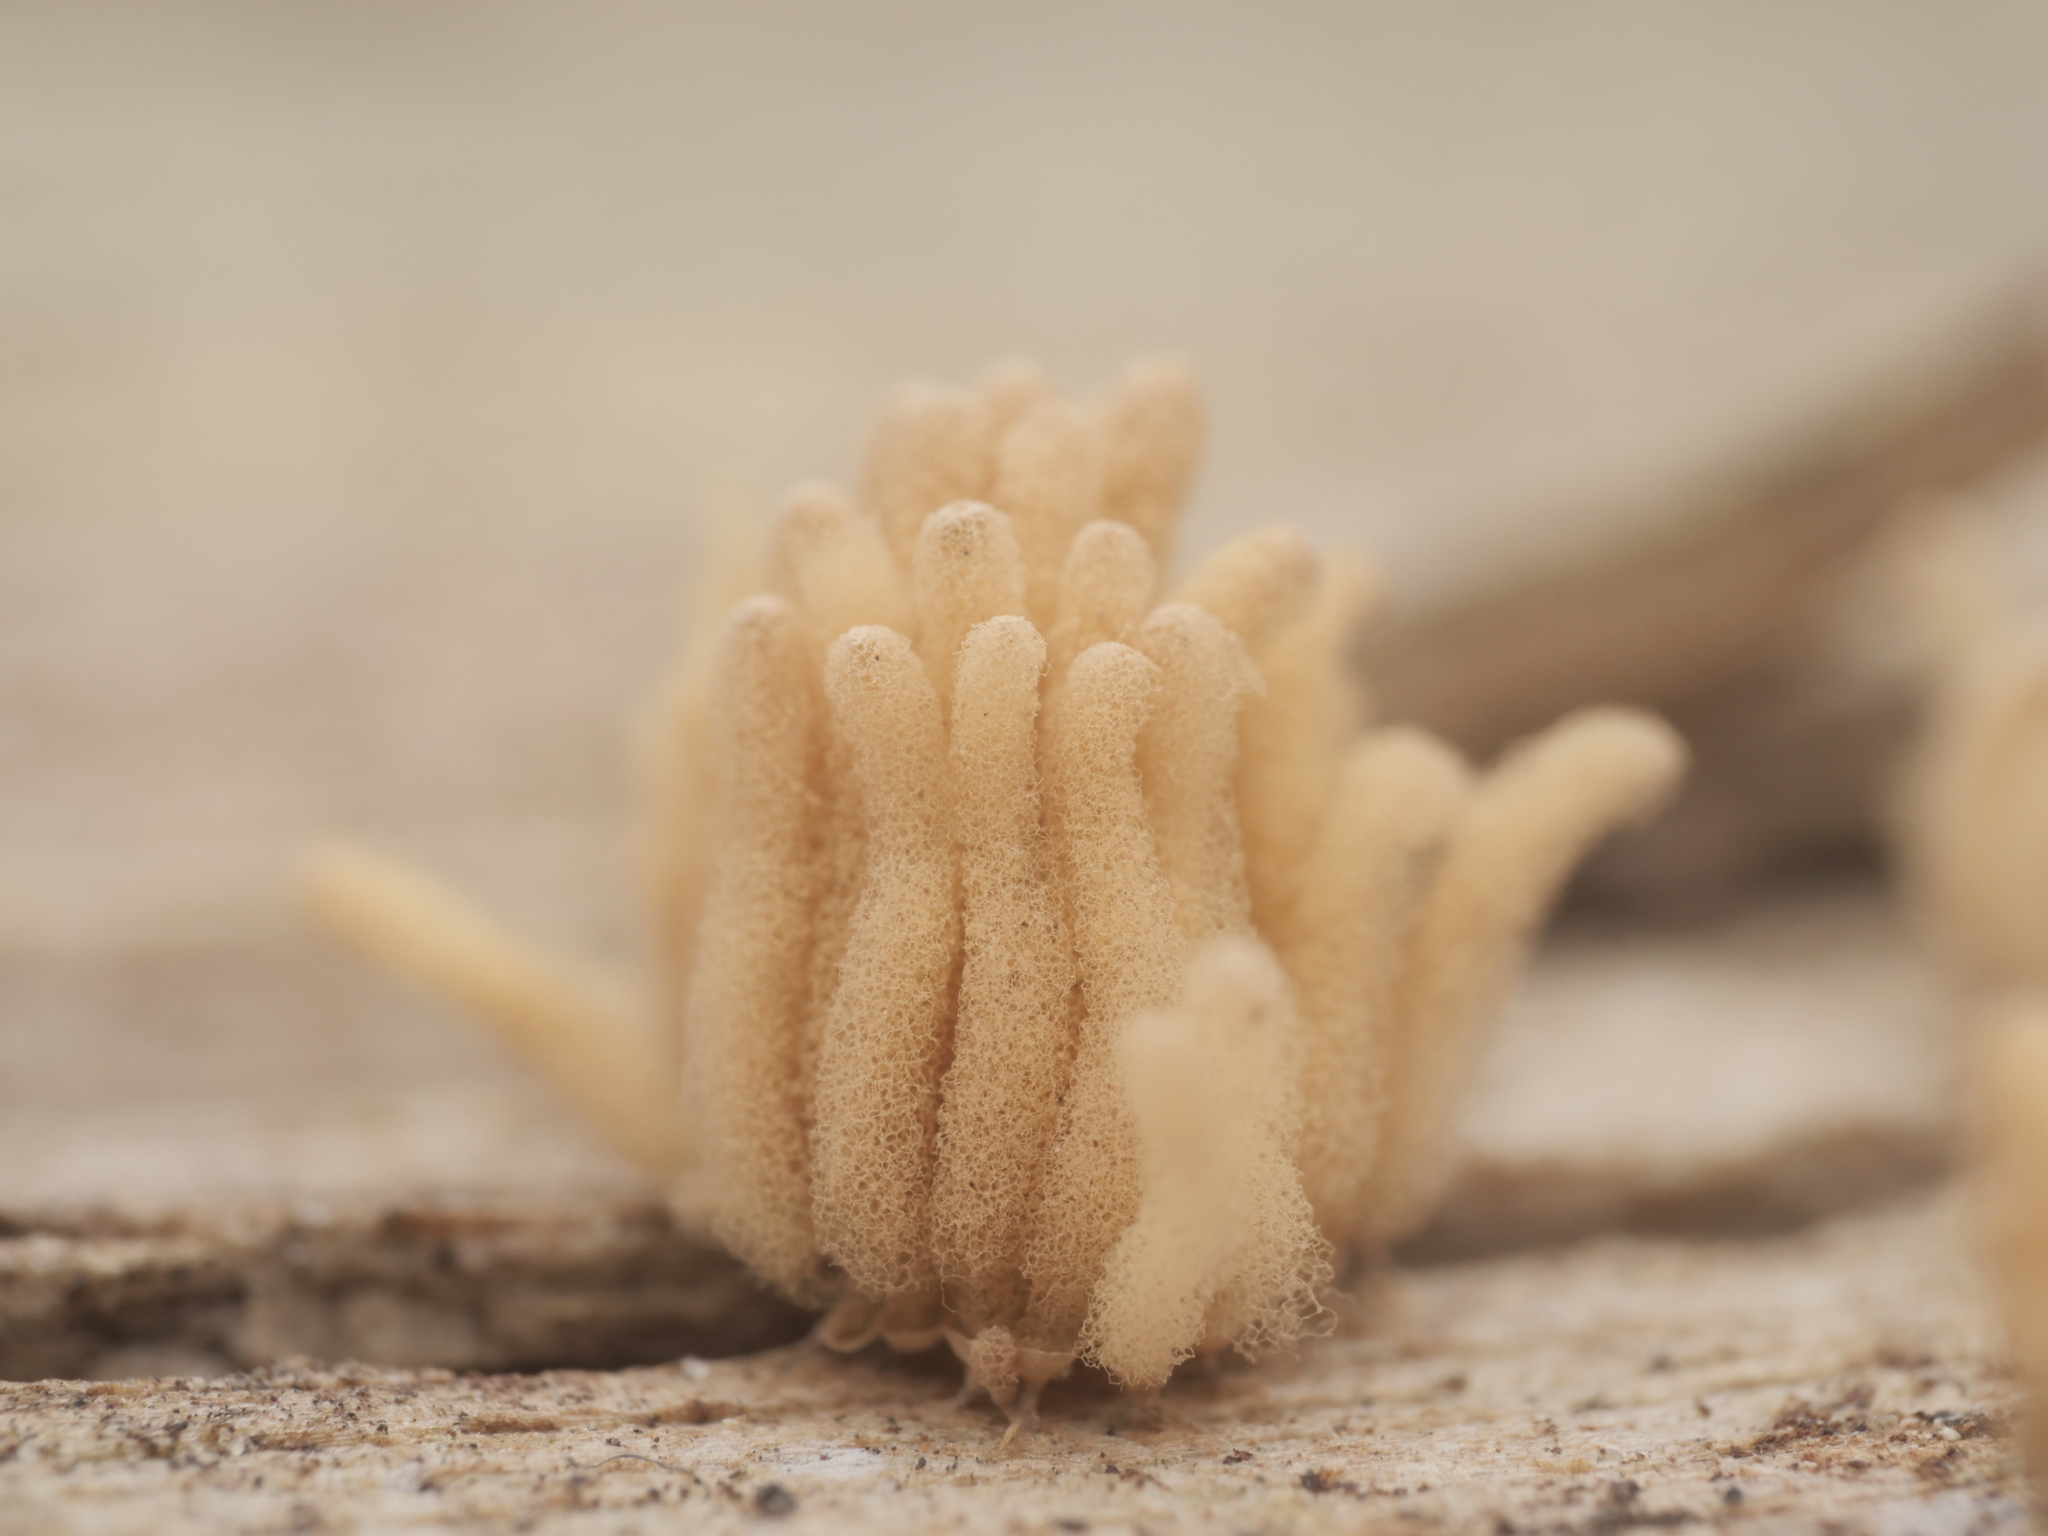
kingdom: Protozoa
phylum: Mycetozoa
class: Myxomycetes
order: Trichiales
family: Arcyriaceae
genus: Arcyria
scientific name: Arcyria obvelata
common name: Yellow carnival candy slime
